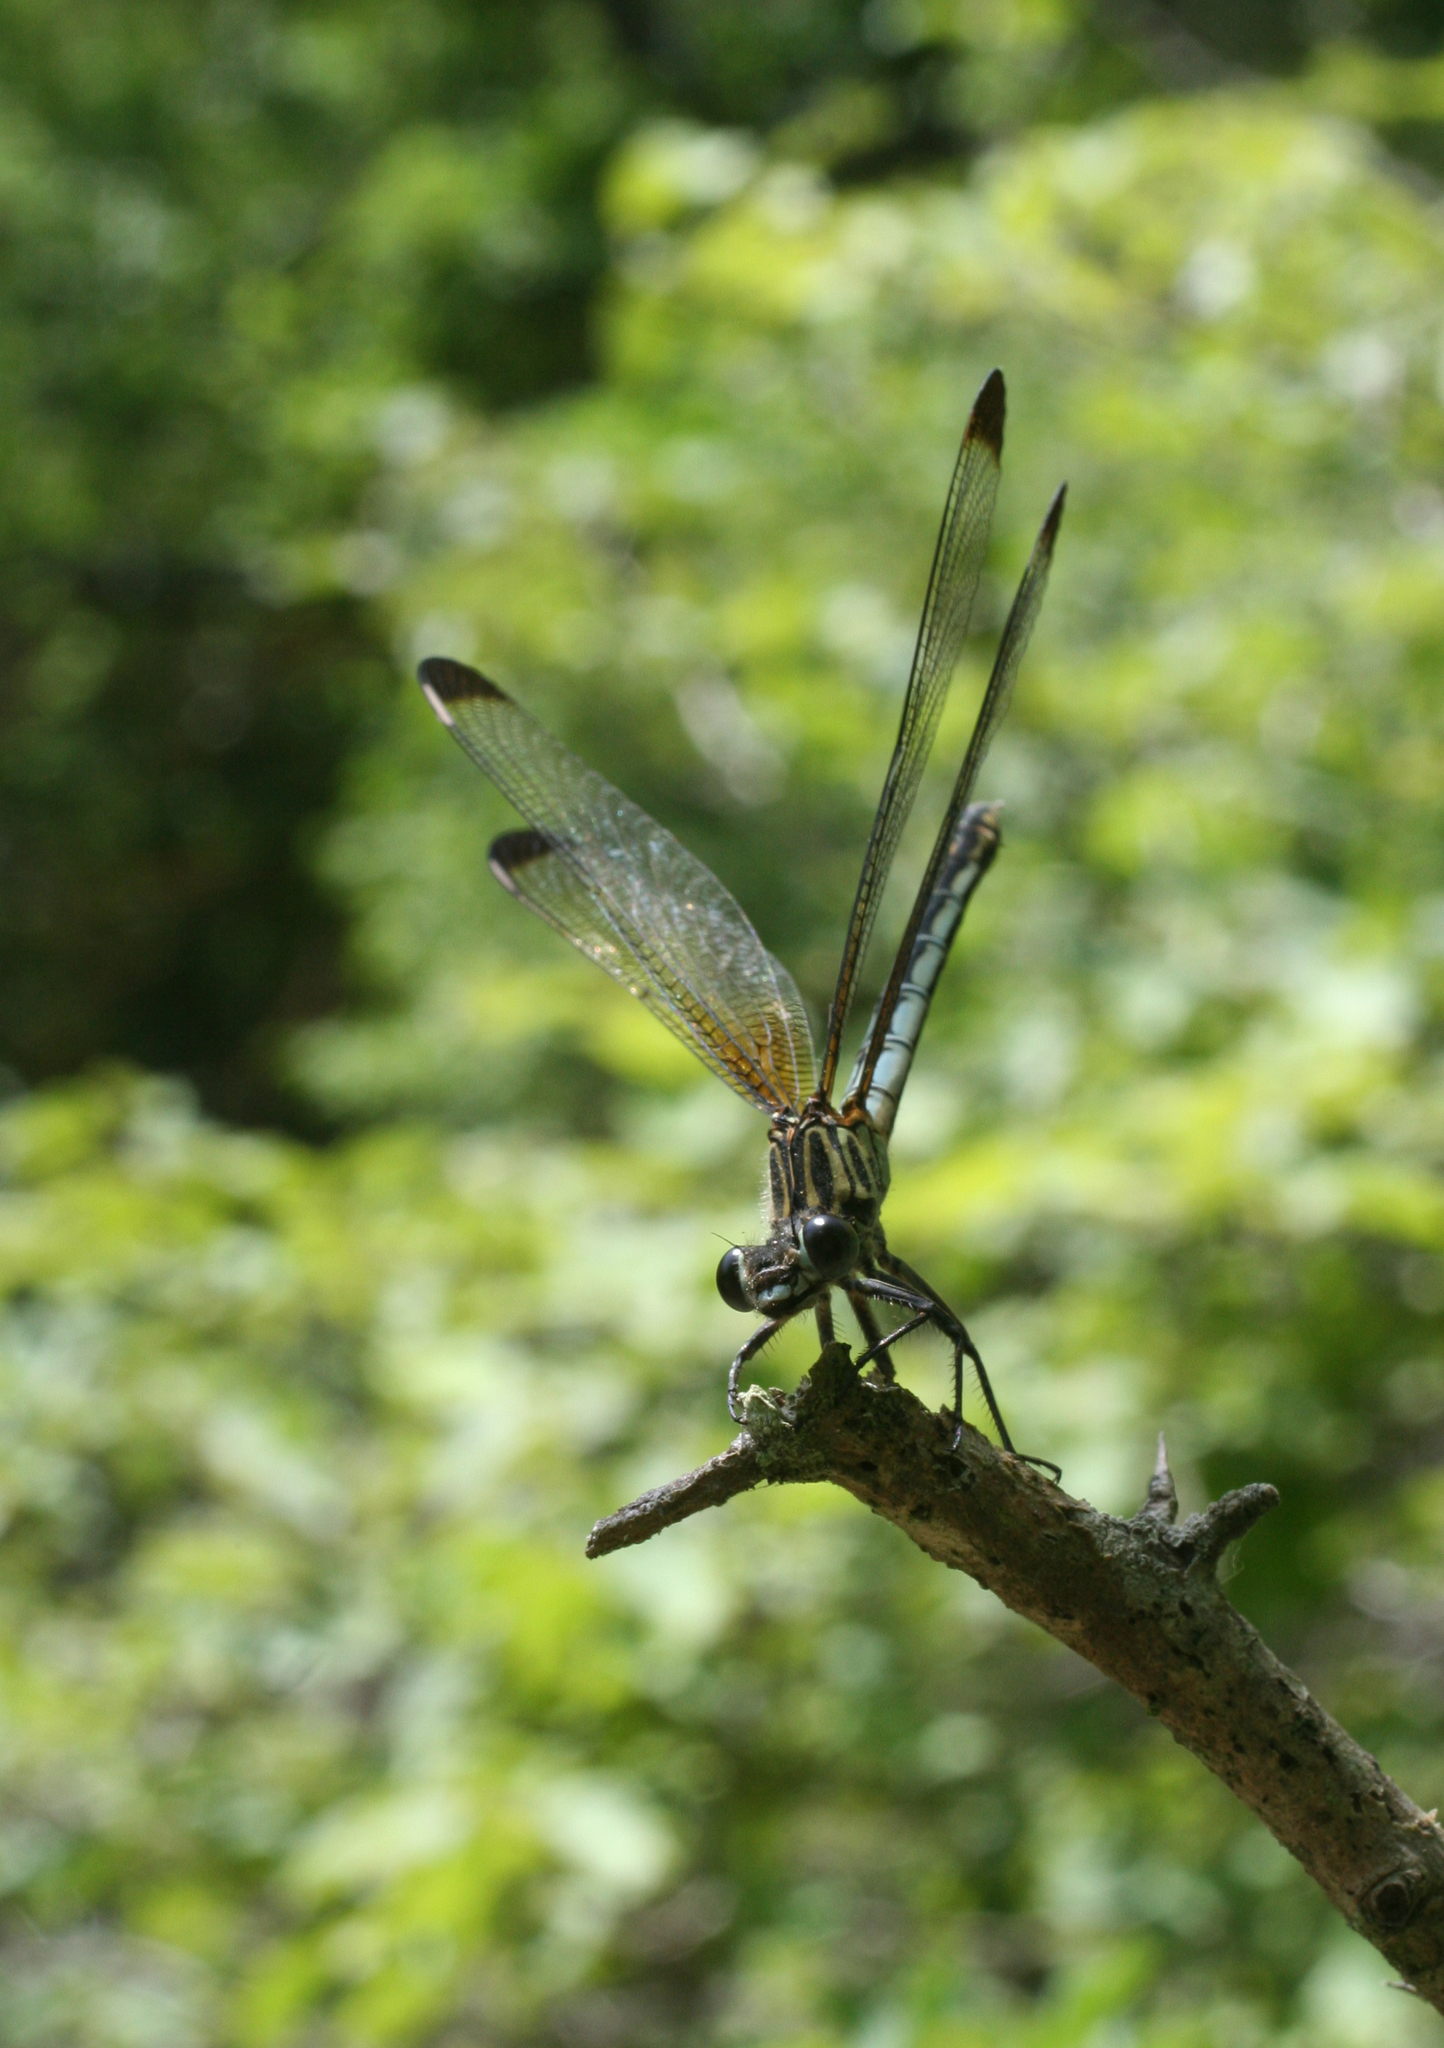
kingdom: Animalia
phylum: Arthropoda
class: Insecta
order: Odonata
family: Euphaeidae
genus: Epallage
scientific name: Epallage fatime
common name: Odalisque
